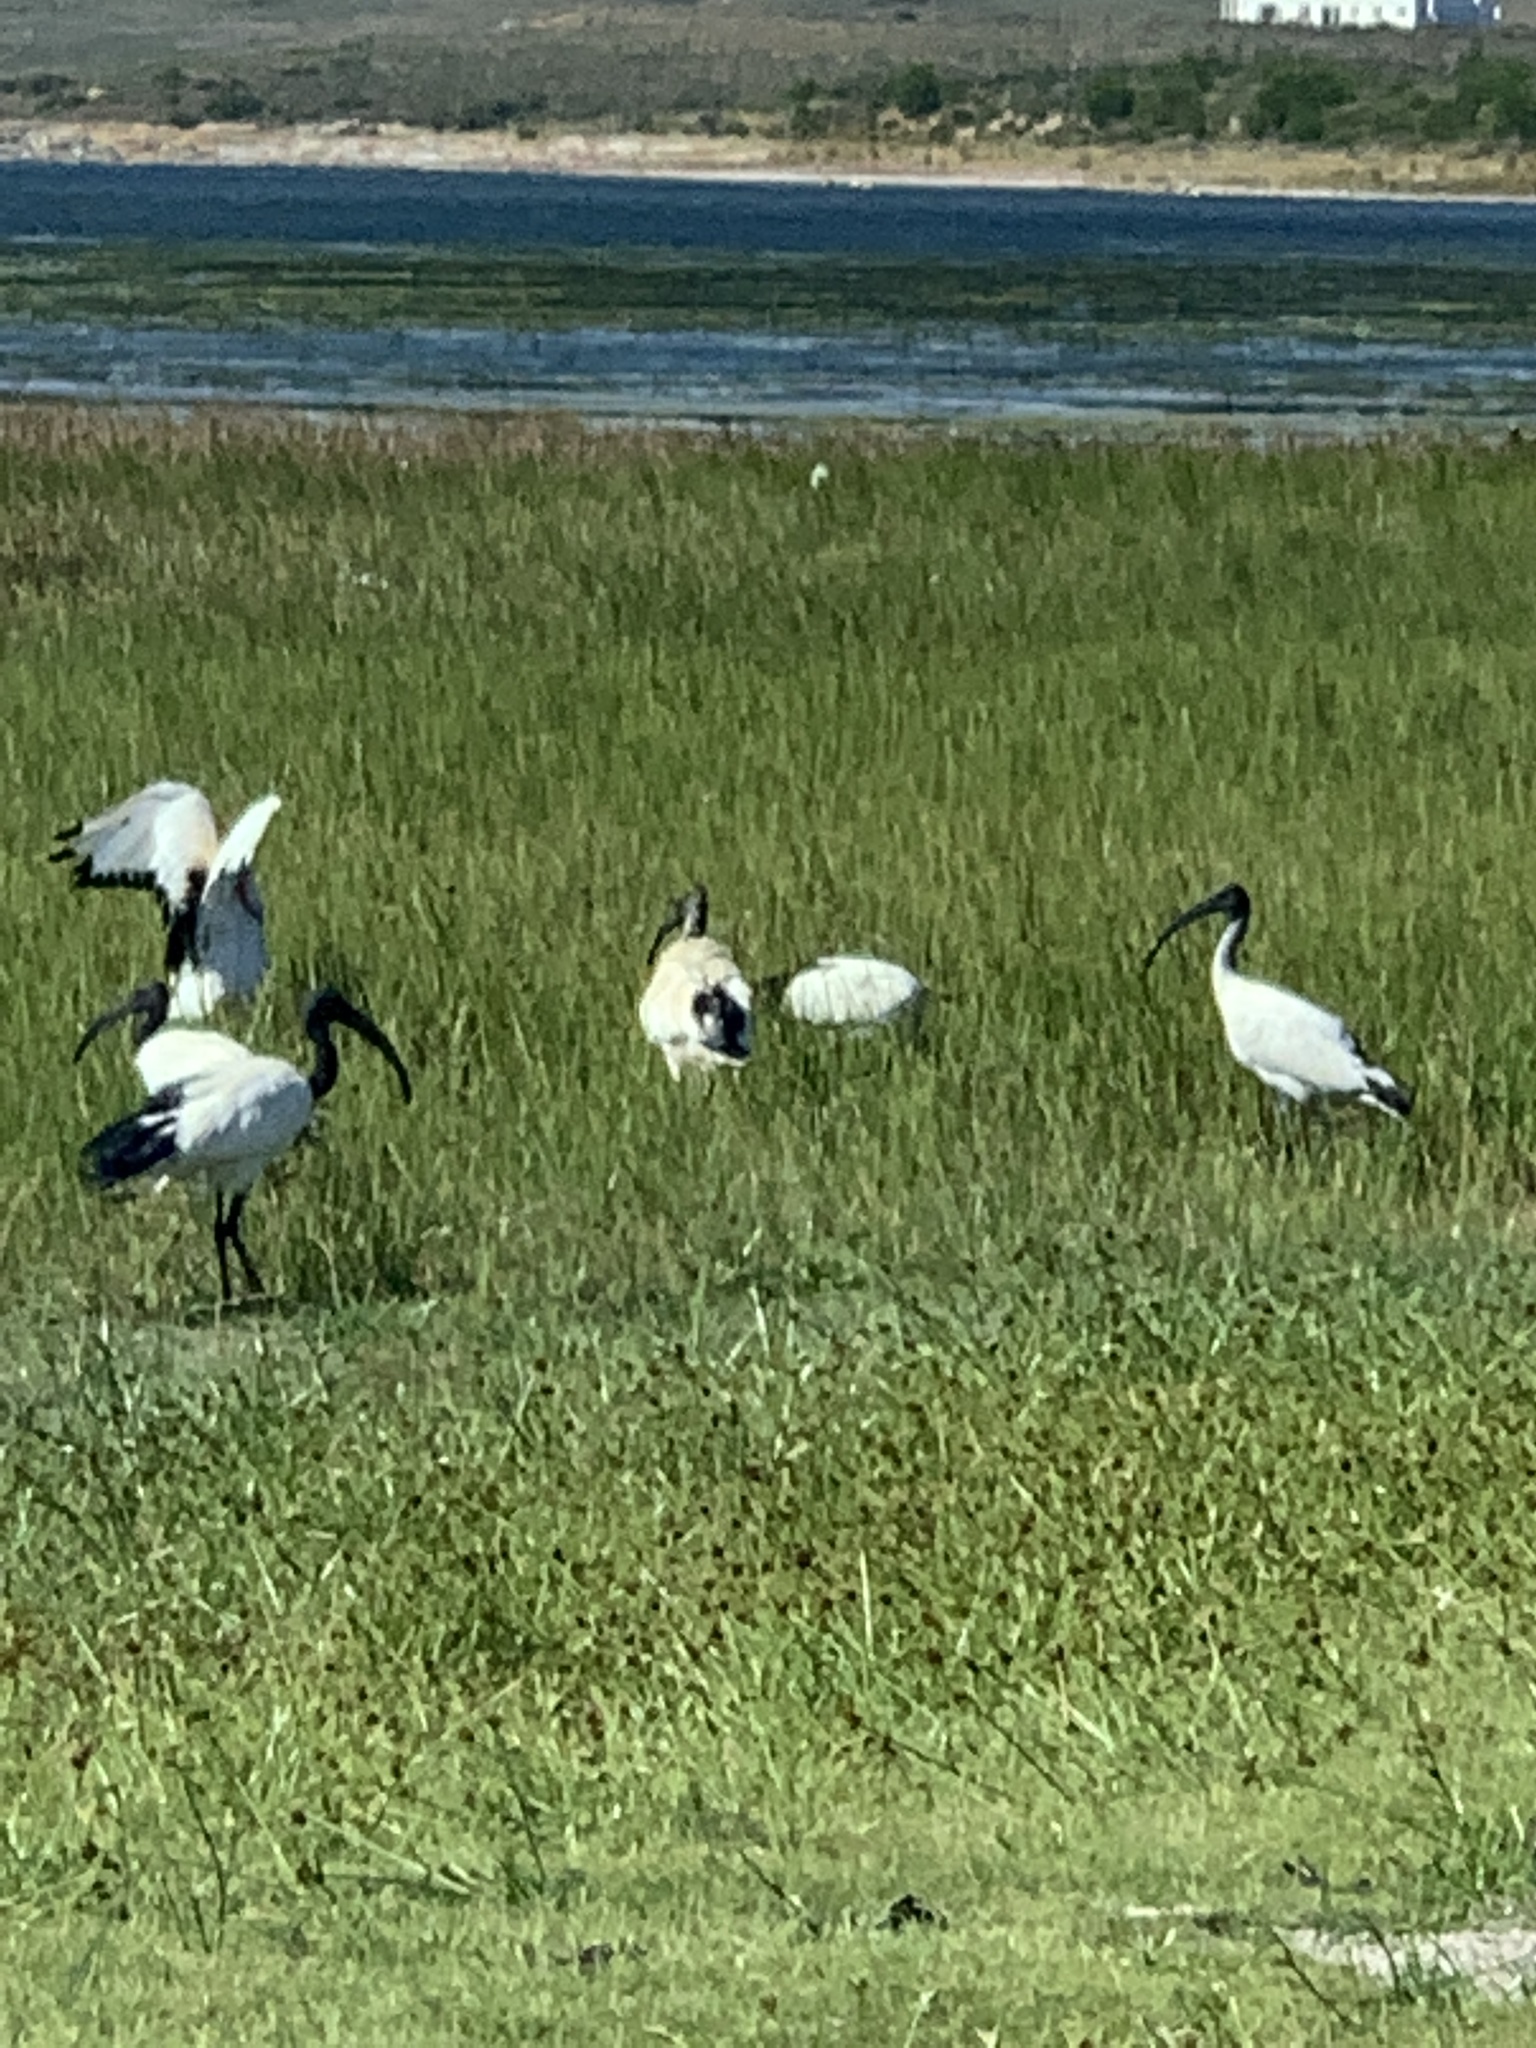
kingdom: Animalia
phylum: Chordata
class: Aves
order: Pelecaniformes
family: Threskiornithidae
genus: Threskiornis
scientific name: Threskiornis aethiopicus
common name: Sacred ibis
